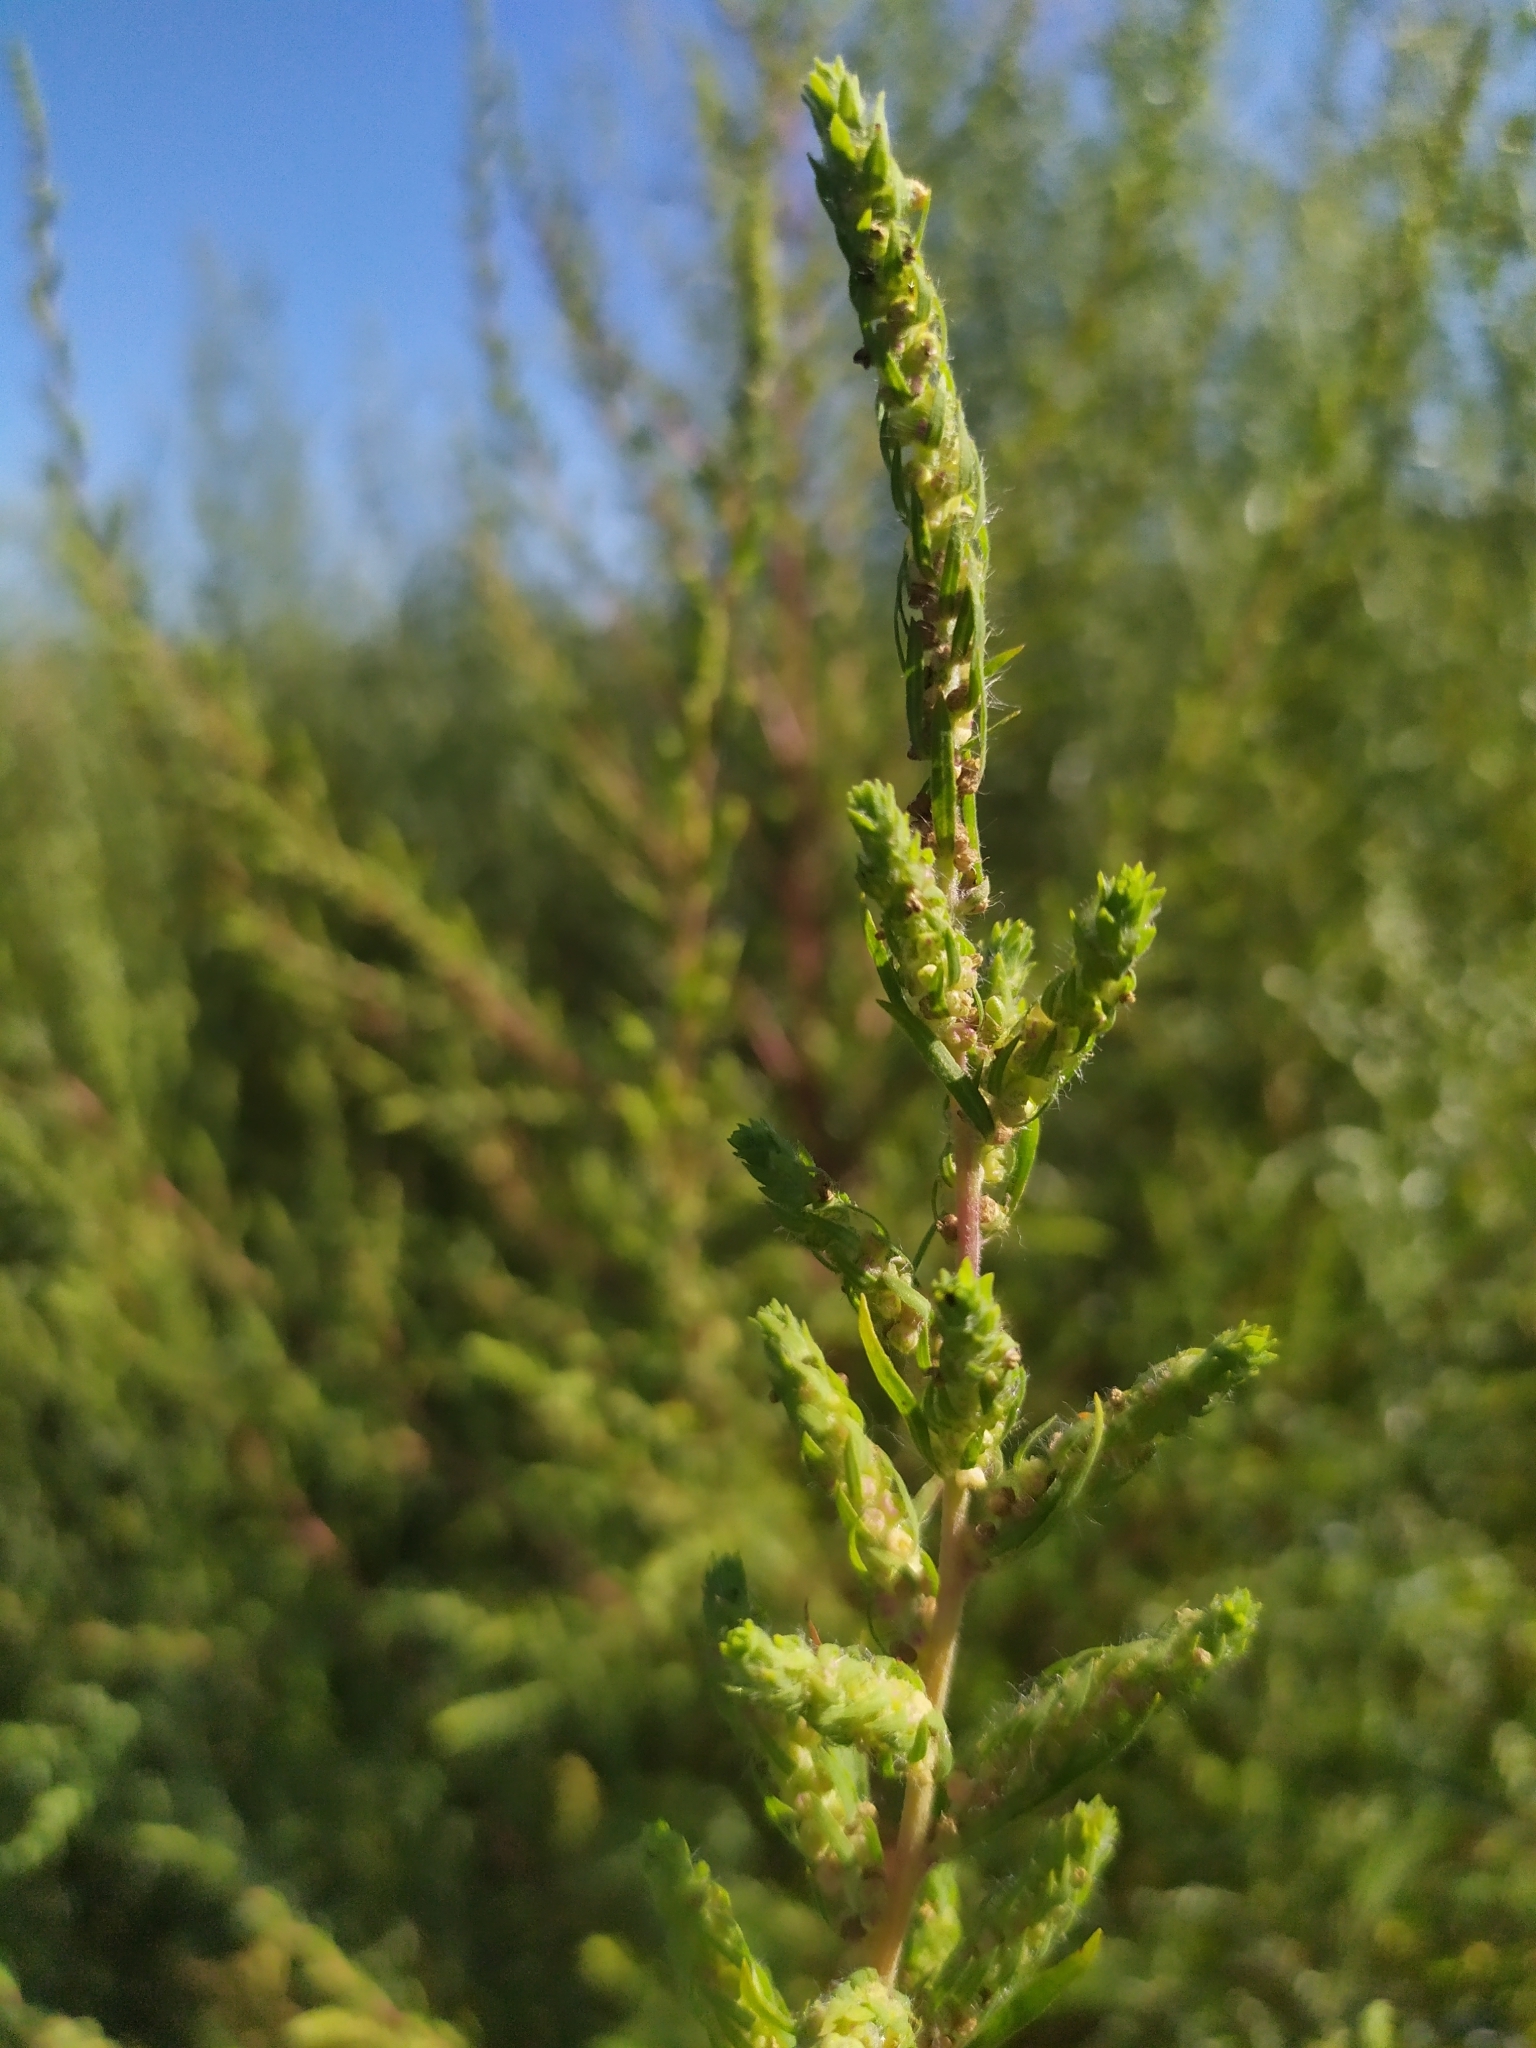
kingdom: Plantae
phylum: Tracheophyta
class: Magnoliopsida
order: Caryophyllales
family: Amaranthaceae
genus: Bassia
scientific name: Bassia scoparia
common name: Belvedere
